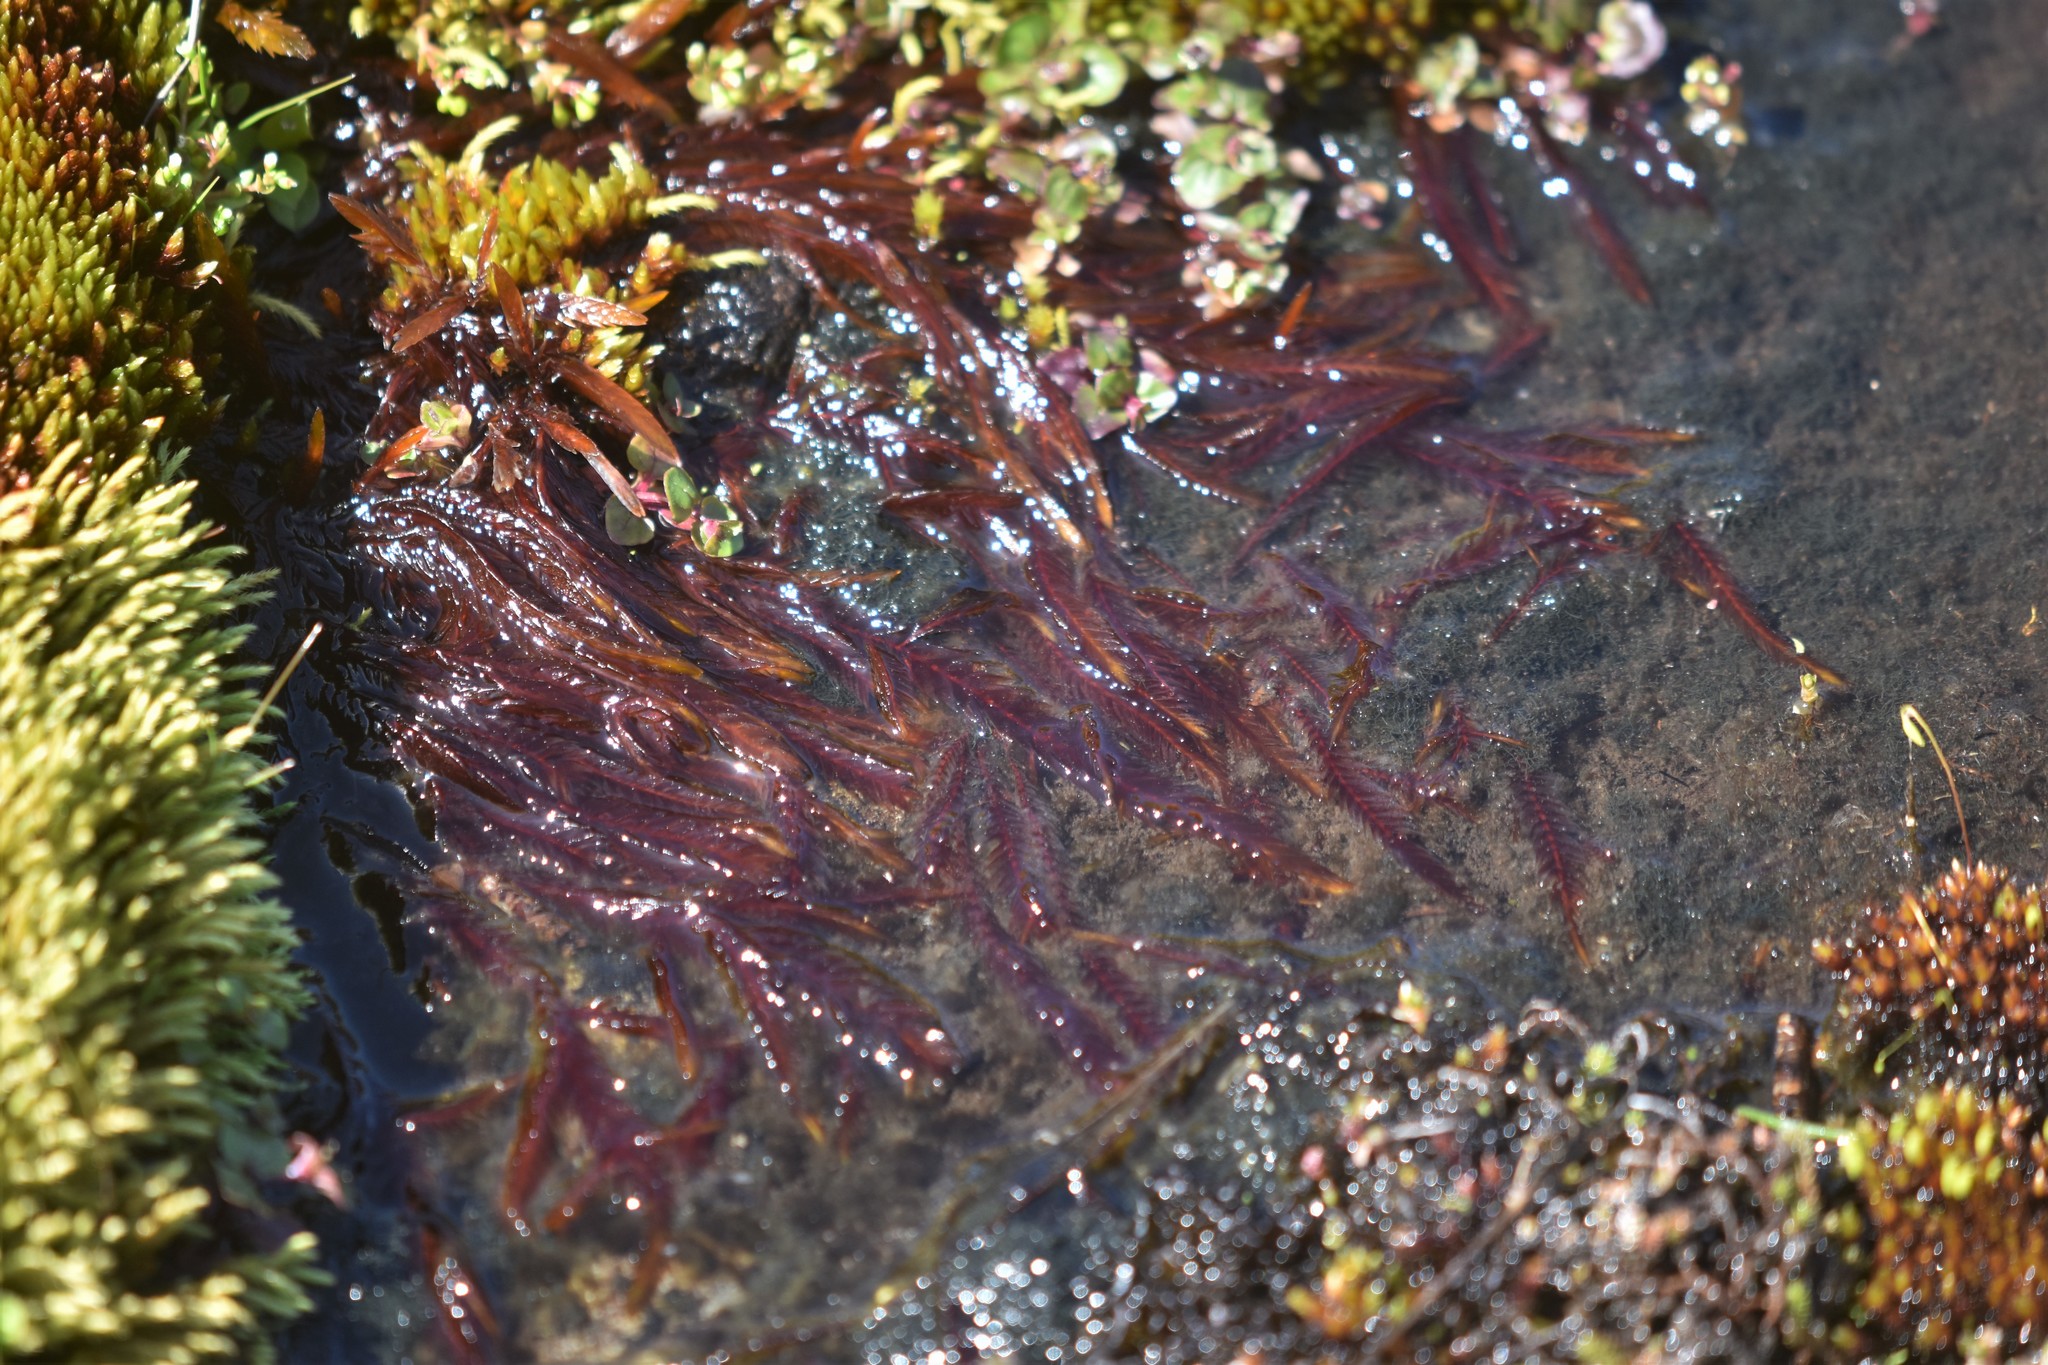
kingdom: Plantae
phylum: Bryophyta
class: Bryopsida
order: Hypnales
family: Fontinalaceae
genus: Fontinalis
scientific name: Fontinalis neomexicana
